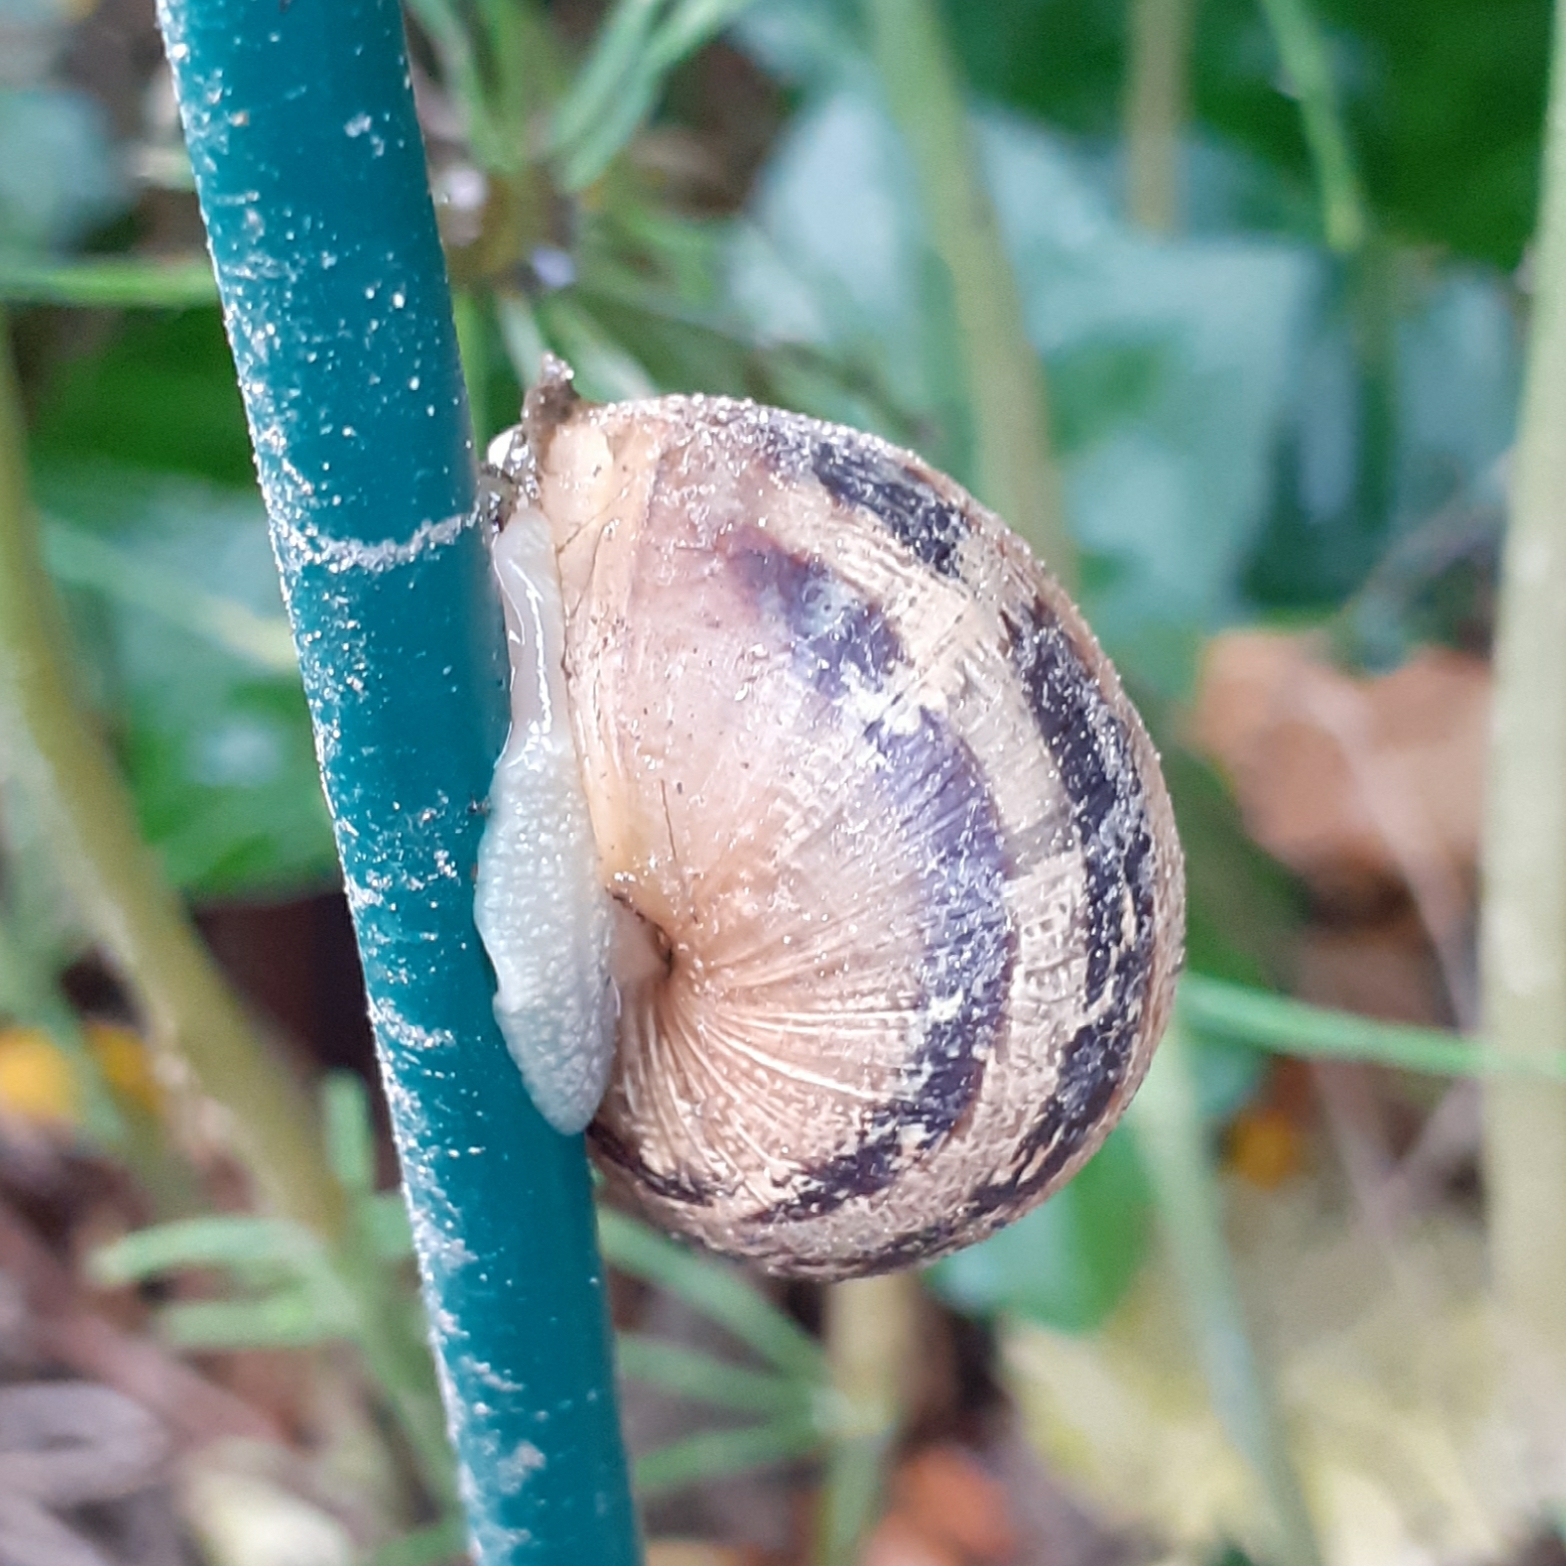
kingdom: Animalia
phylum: Mollusca
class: Gastropoda
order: Stylommatophora
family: Helicidae
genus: Cornu
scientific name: Cornu aspersum
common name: Brown garden snail
